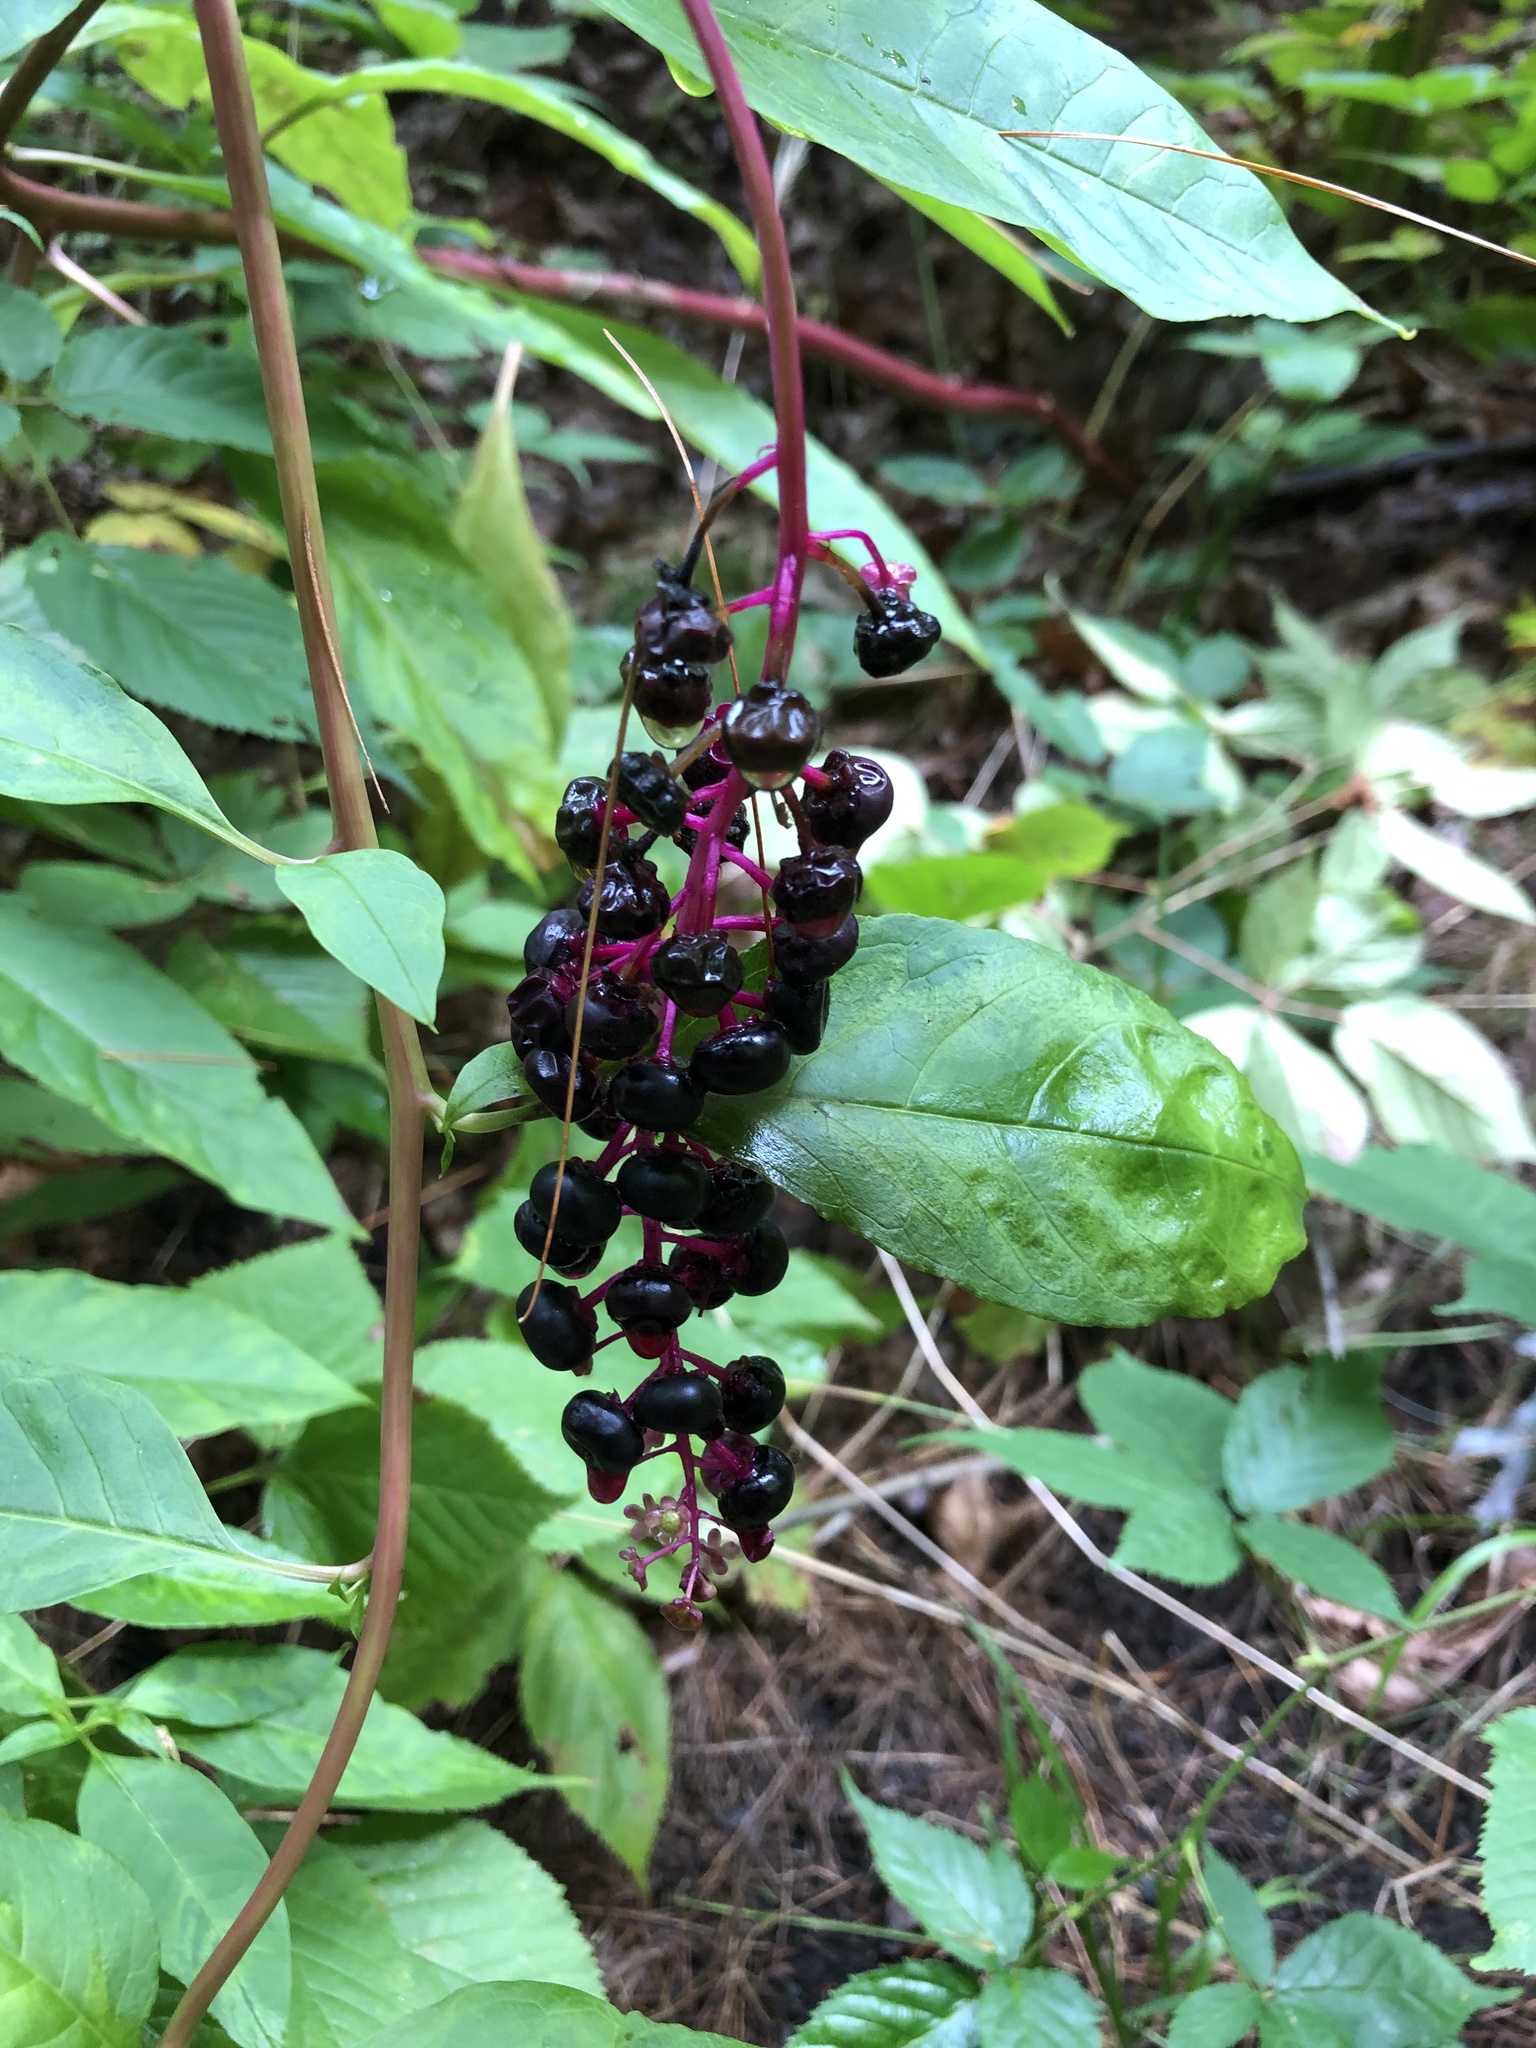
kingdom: Plantae
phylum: Tracheophyta
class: Magnoliopsida
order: Caryophyllales
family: Phytolaccaceae
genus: Phytolacca
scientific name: Phytolacca americana
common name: American pokeweed
